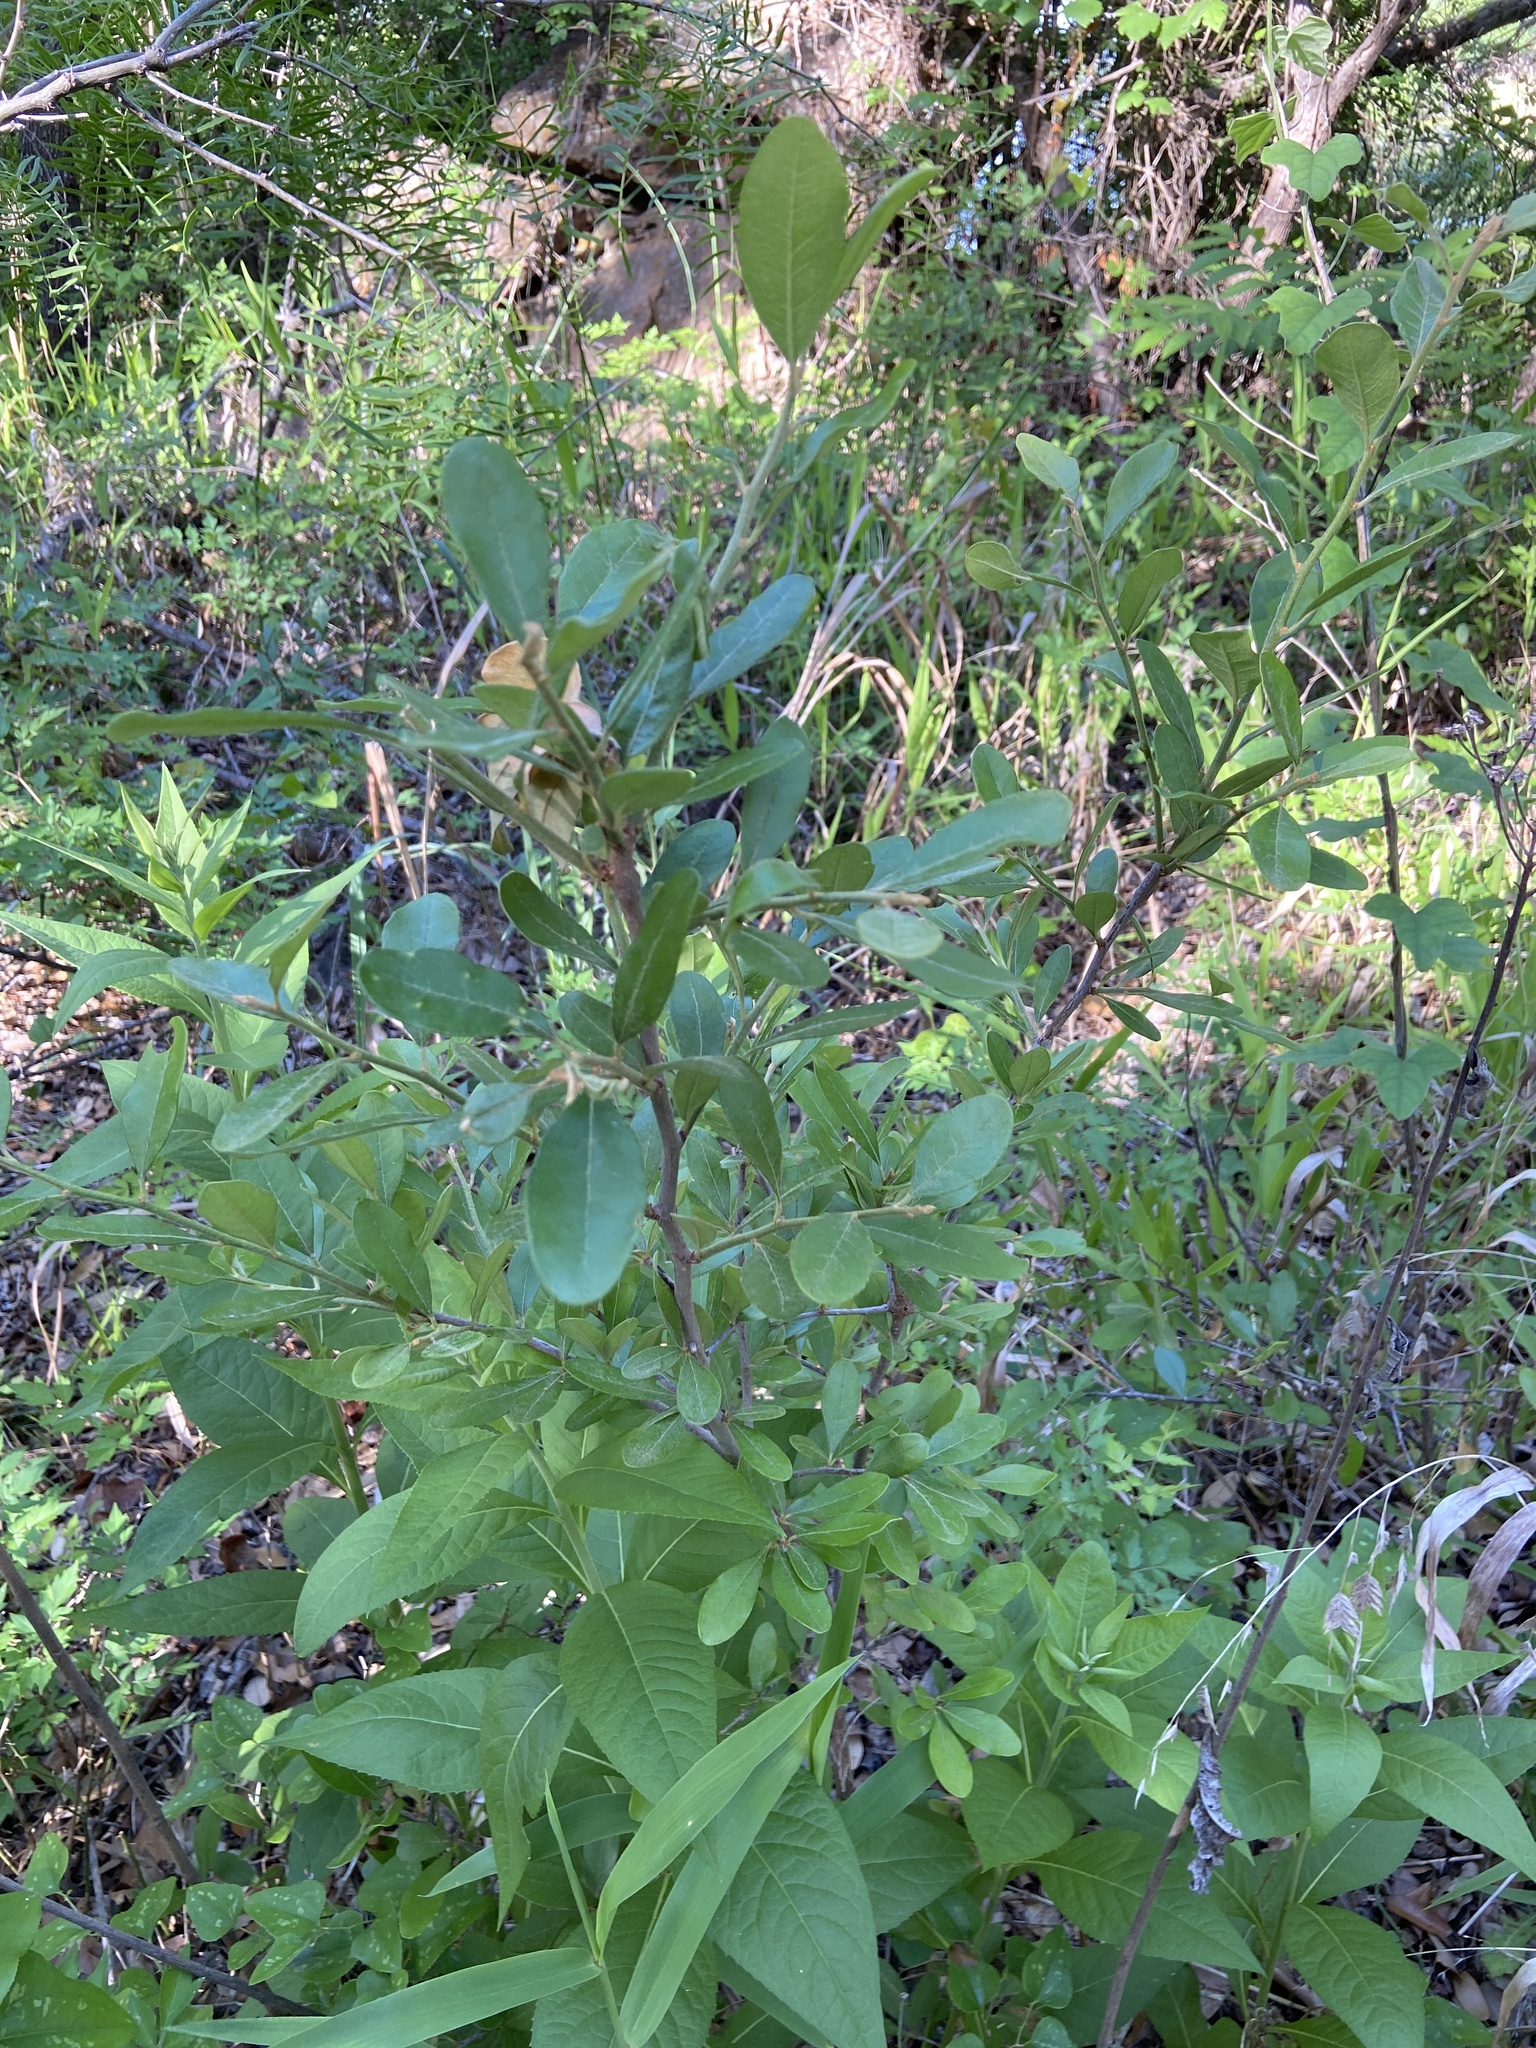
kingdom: Plantae
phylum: Tracheophyta
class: Magnoliopsida
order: Ericales
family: Sapotaceae
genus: Sideroxylon
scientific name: Sideroxylon lanuginosum
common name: Chittamwood
